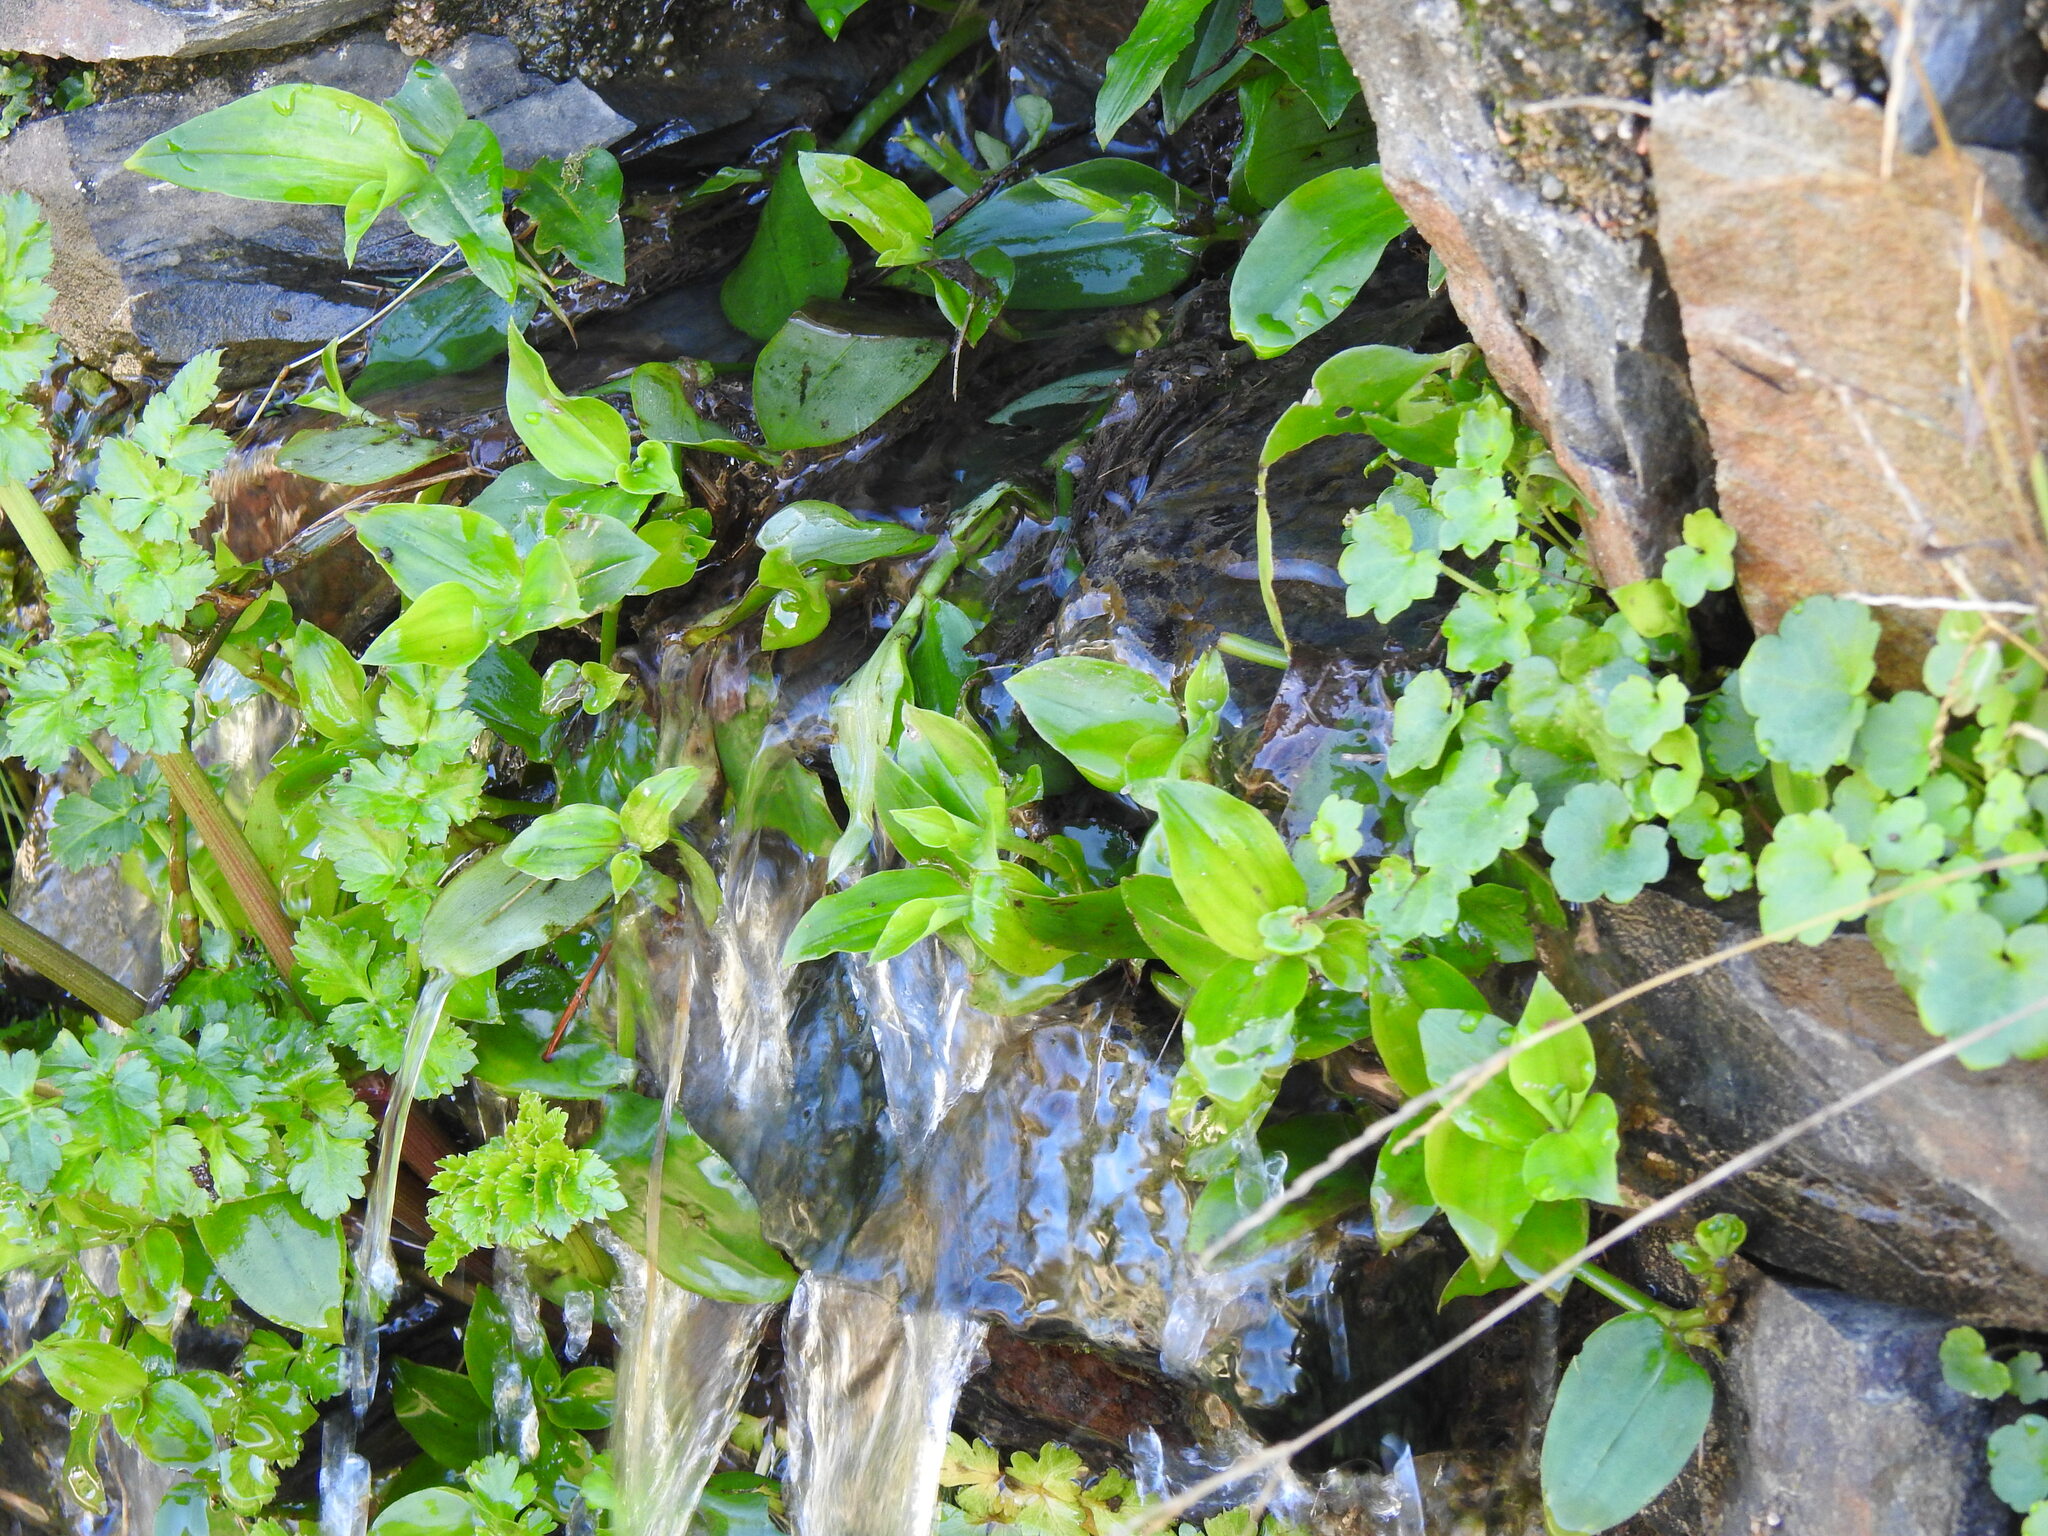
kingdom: Plantae
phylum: Tracheophyta
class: Liliopsida
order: Commelinales
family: Commelinaceae
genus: Tradescantia
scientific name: Tradescantia fluminensis
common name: Wandering-jew
